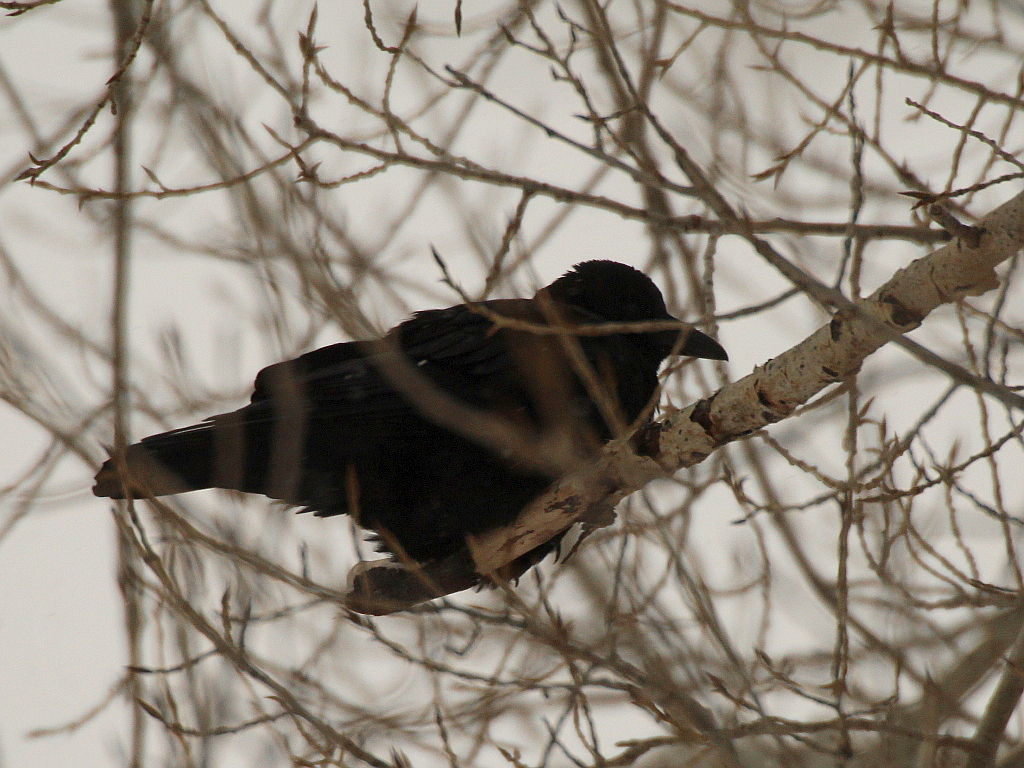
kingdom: Animalia
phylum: Chordata
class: Aves
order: Passeriformes
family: Corvidae
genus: Corvus
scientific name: Corvus corone
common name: Carrion crow
